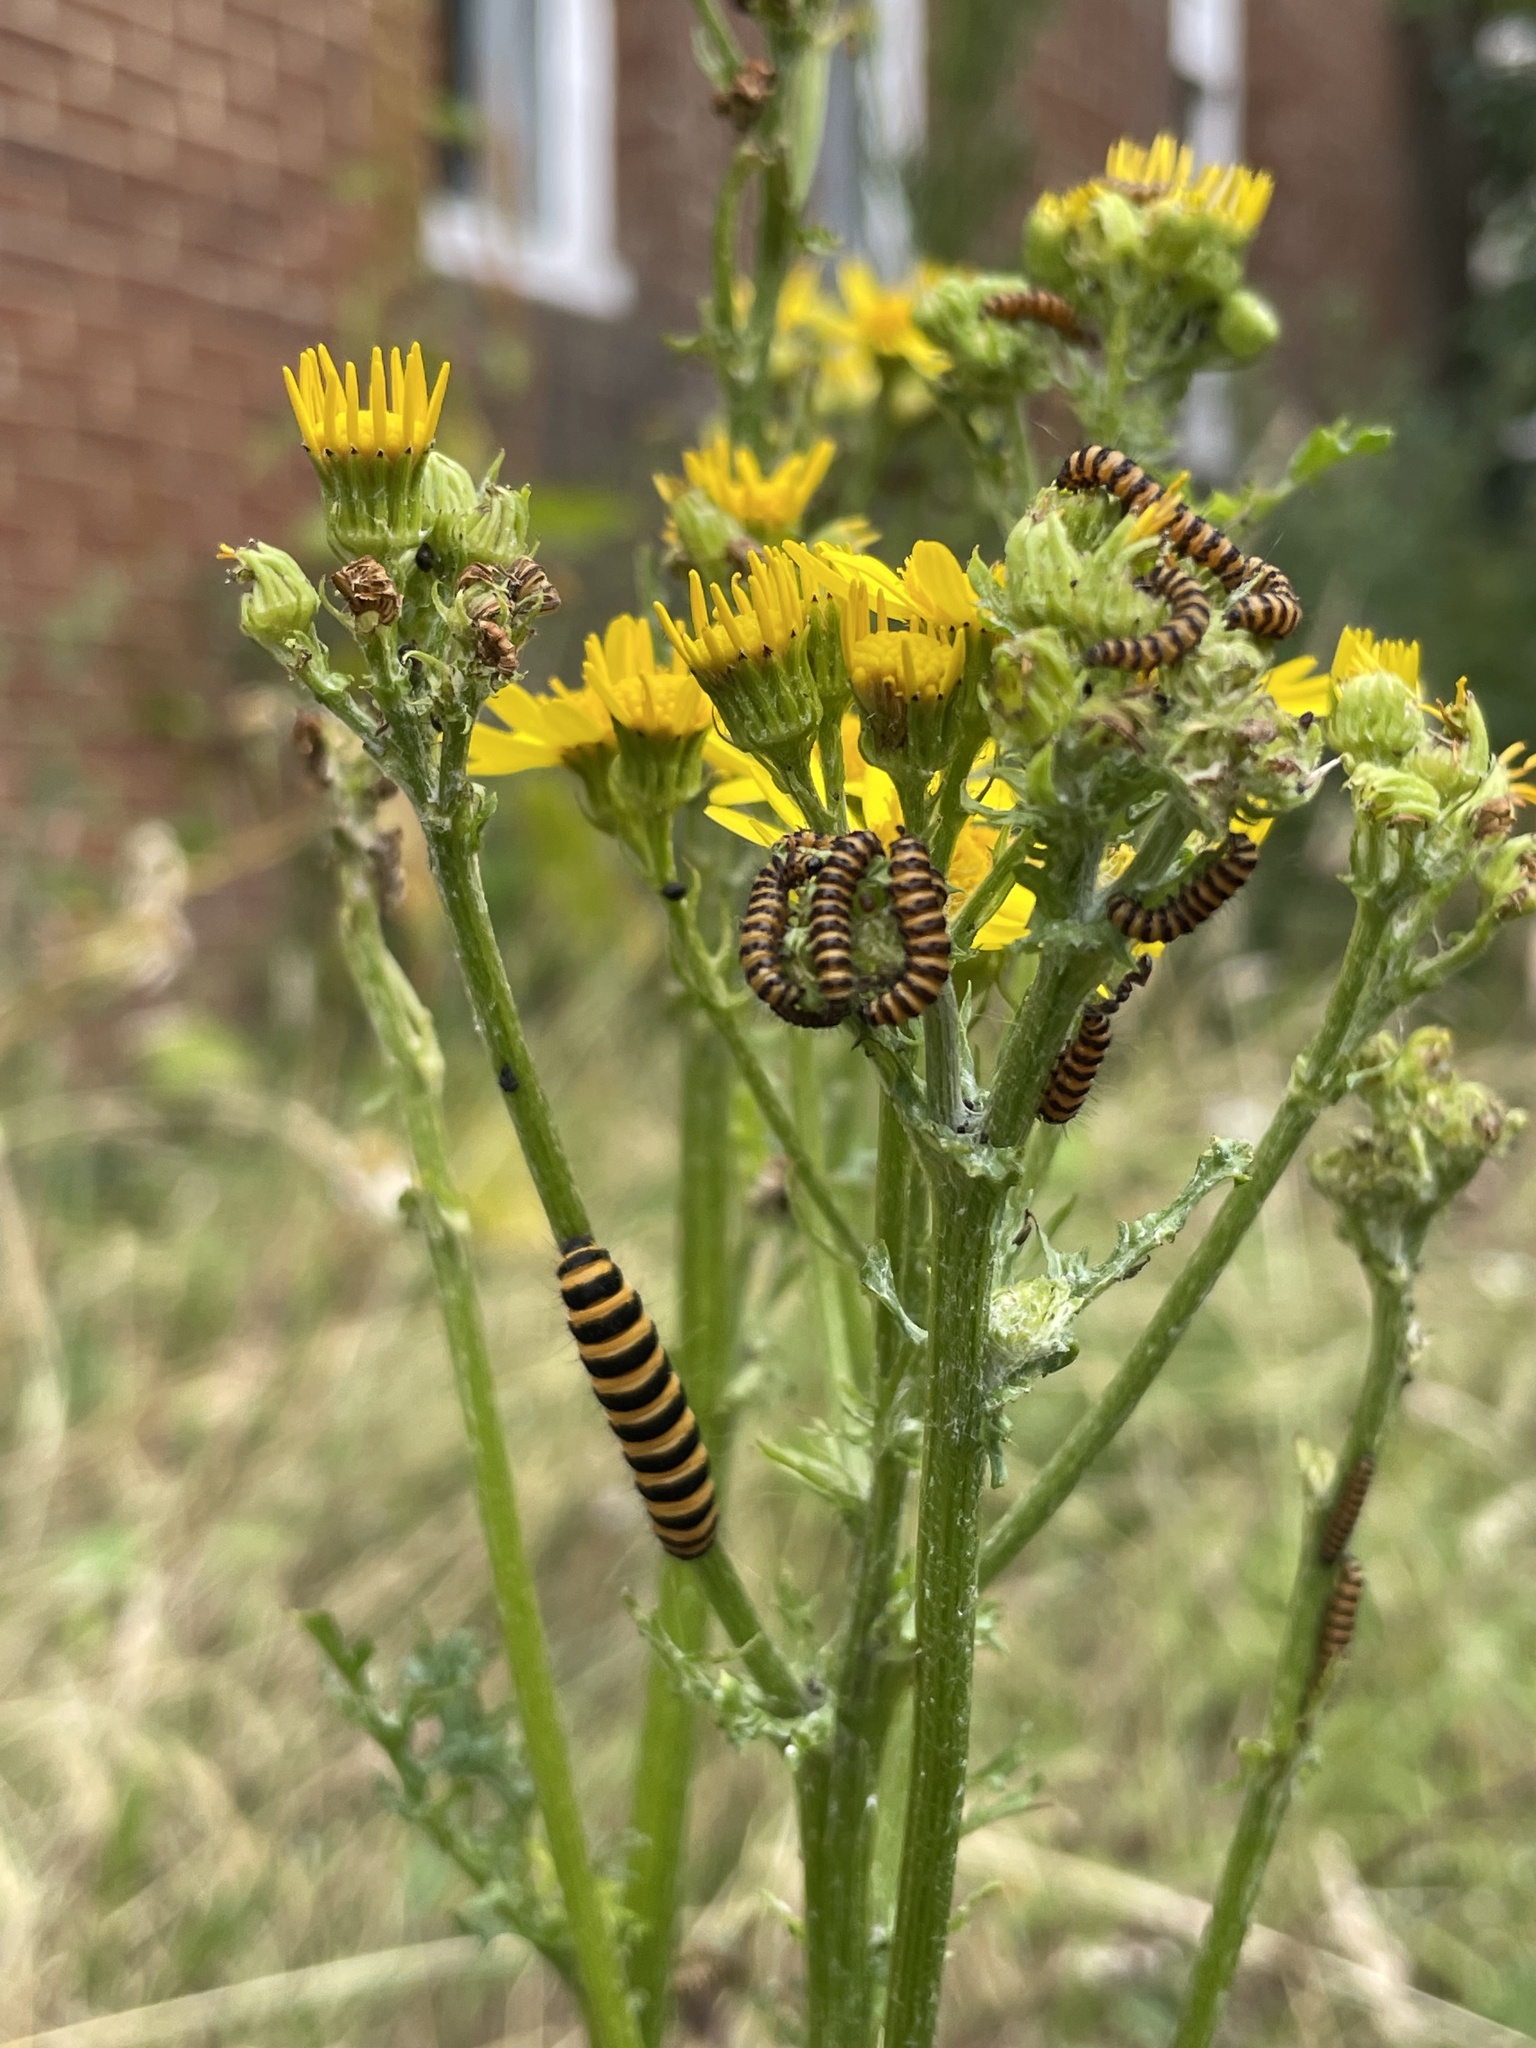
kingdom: Animalia
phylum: Arthropoda
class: Insecta
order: Lepidoptera
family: Erebidae
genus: Tyria
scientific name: Tyria jacobaeae
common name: Cinnabar
